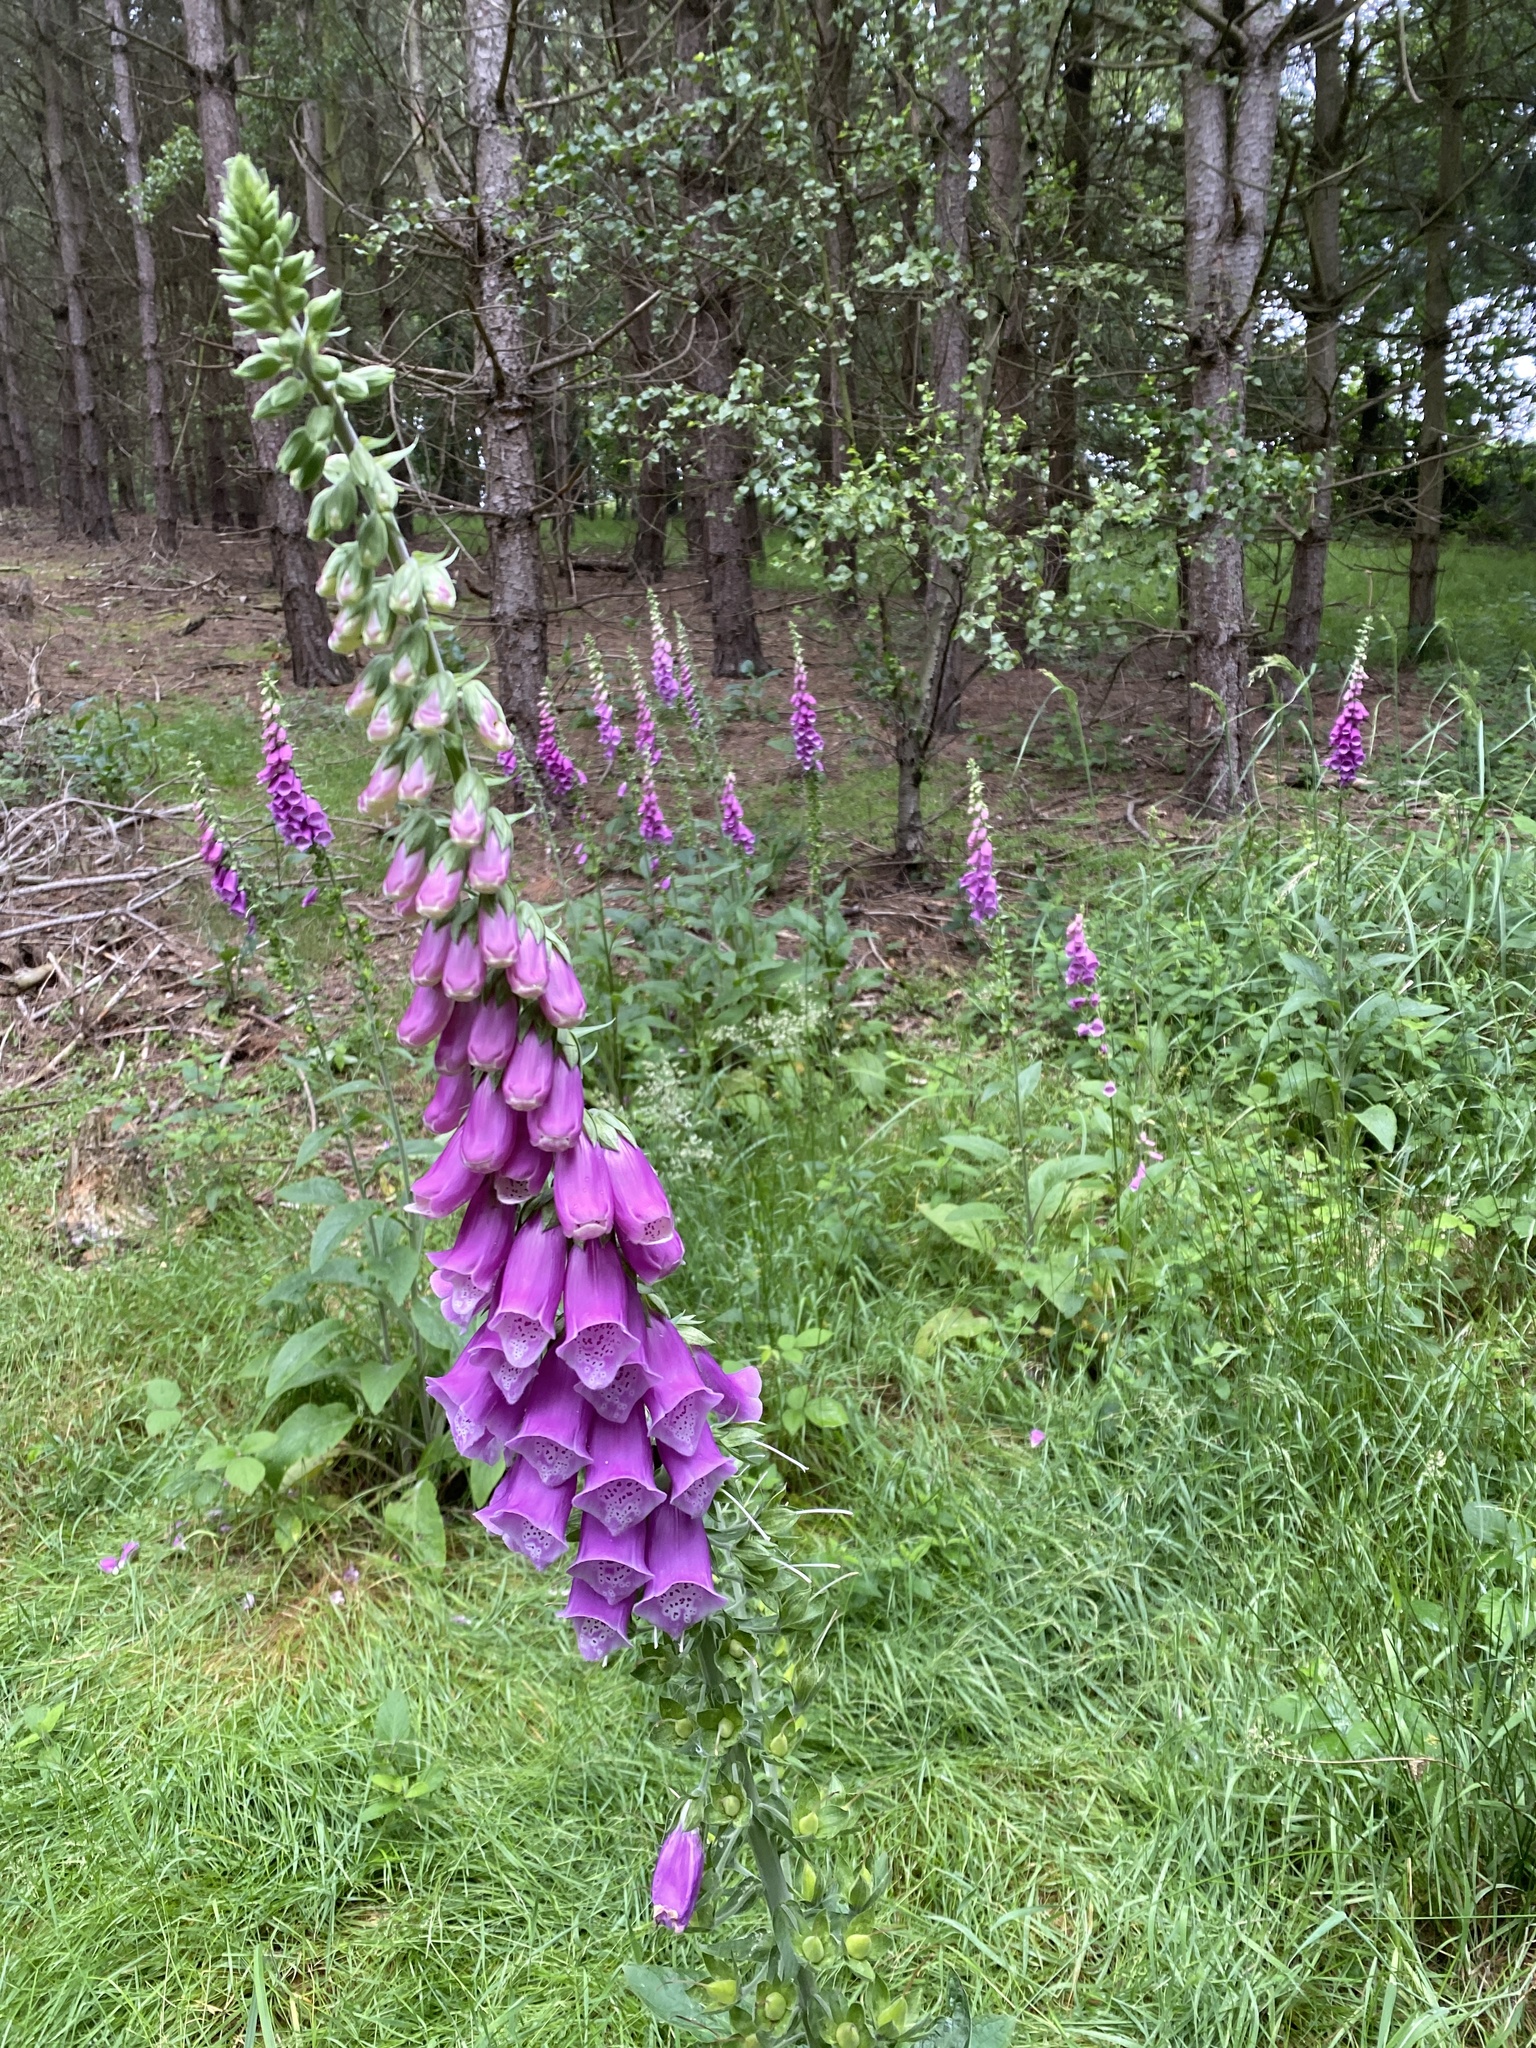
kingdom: Plantae
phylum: Tracheophyta
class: Magnoliopsida
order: Lamiales
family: Plantaginaceae
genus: Digitalis
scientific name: Digitalis purpurea
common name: Foxglove
